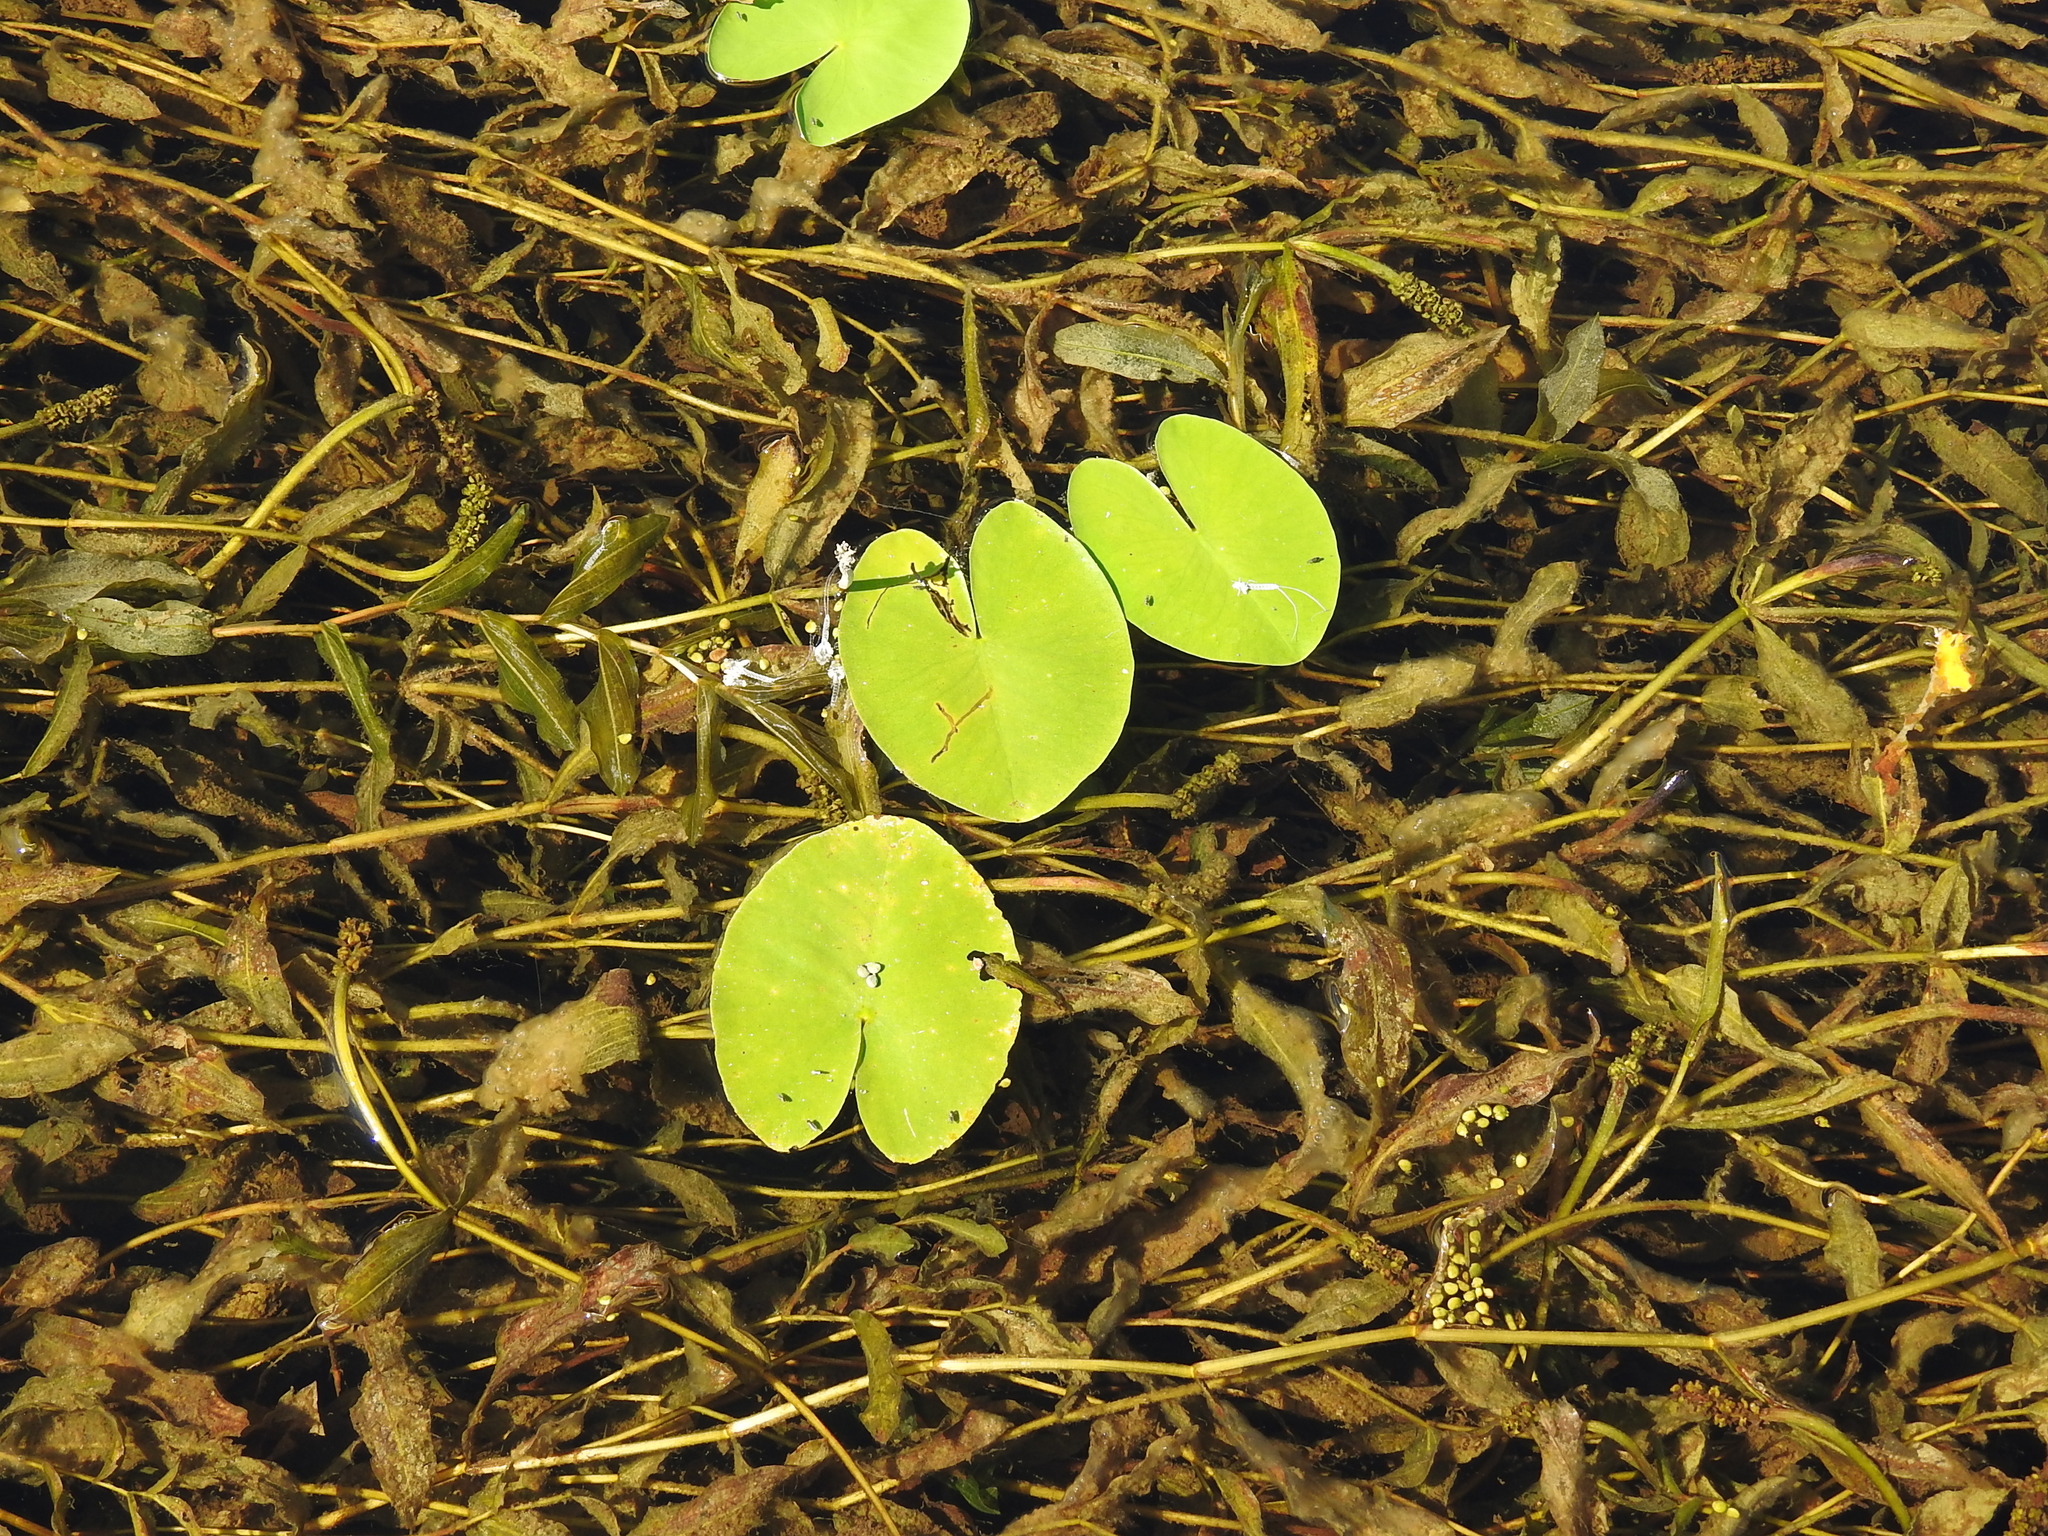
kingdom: Plantae
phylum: Tracheophyta
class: Magnoliopsida
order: Nymphaeales
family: Nymphaeaceae
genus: Nuphar
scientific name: Nuphar lutea
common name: Yellow water-lily
